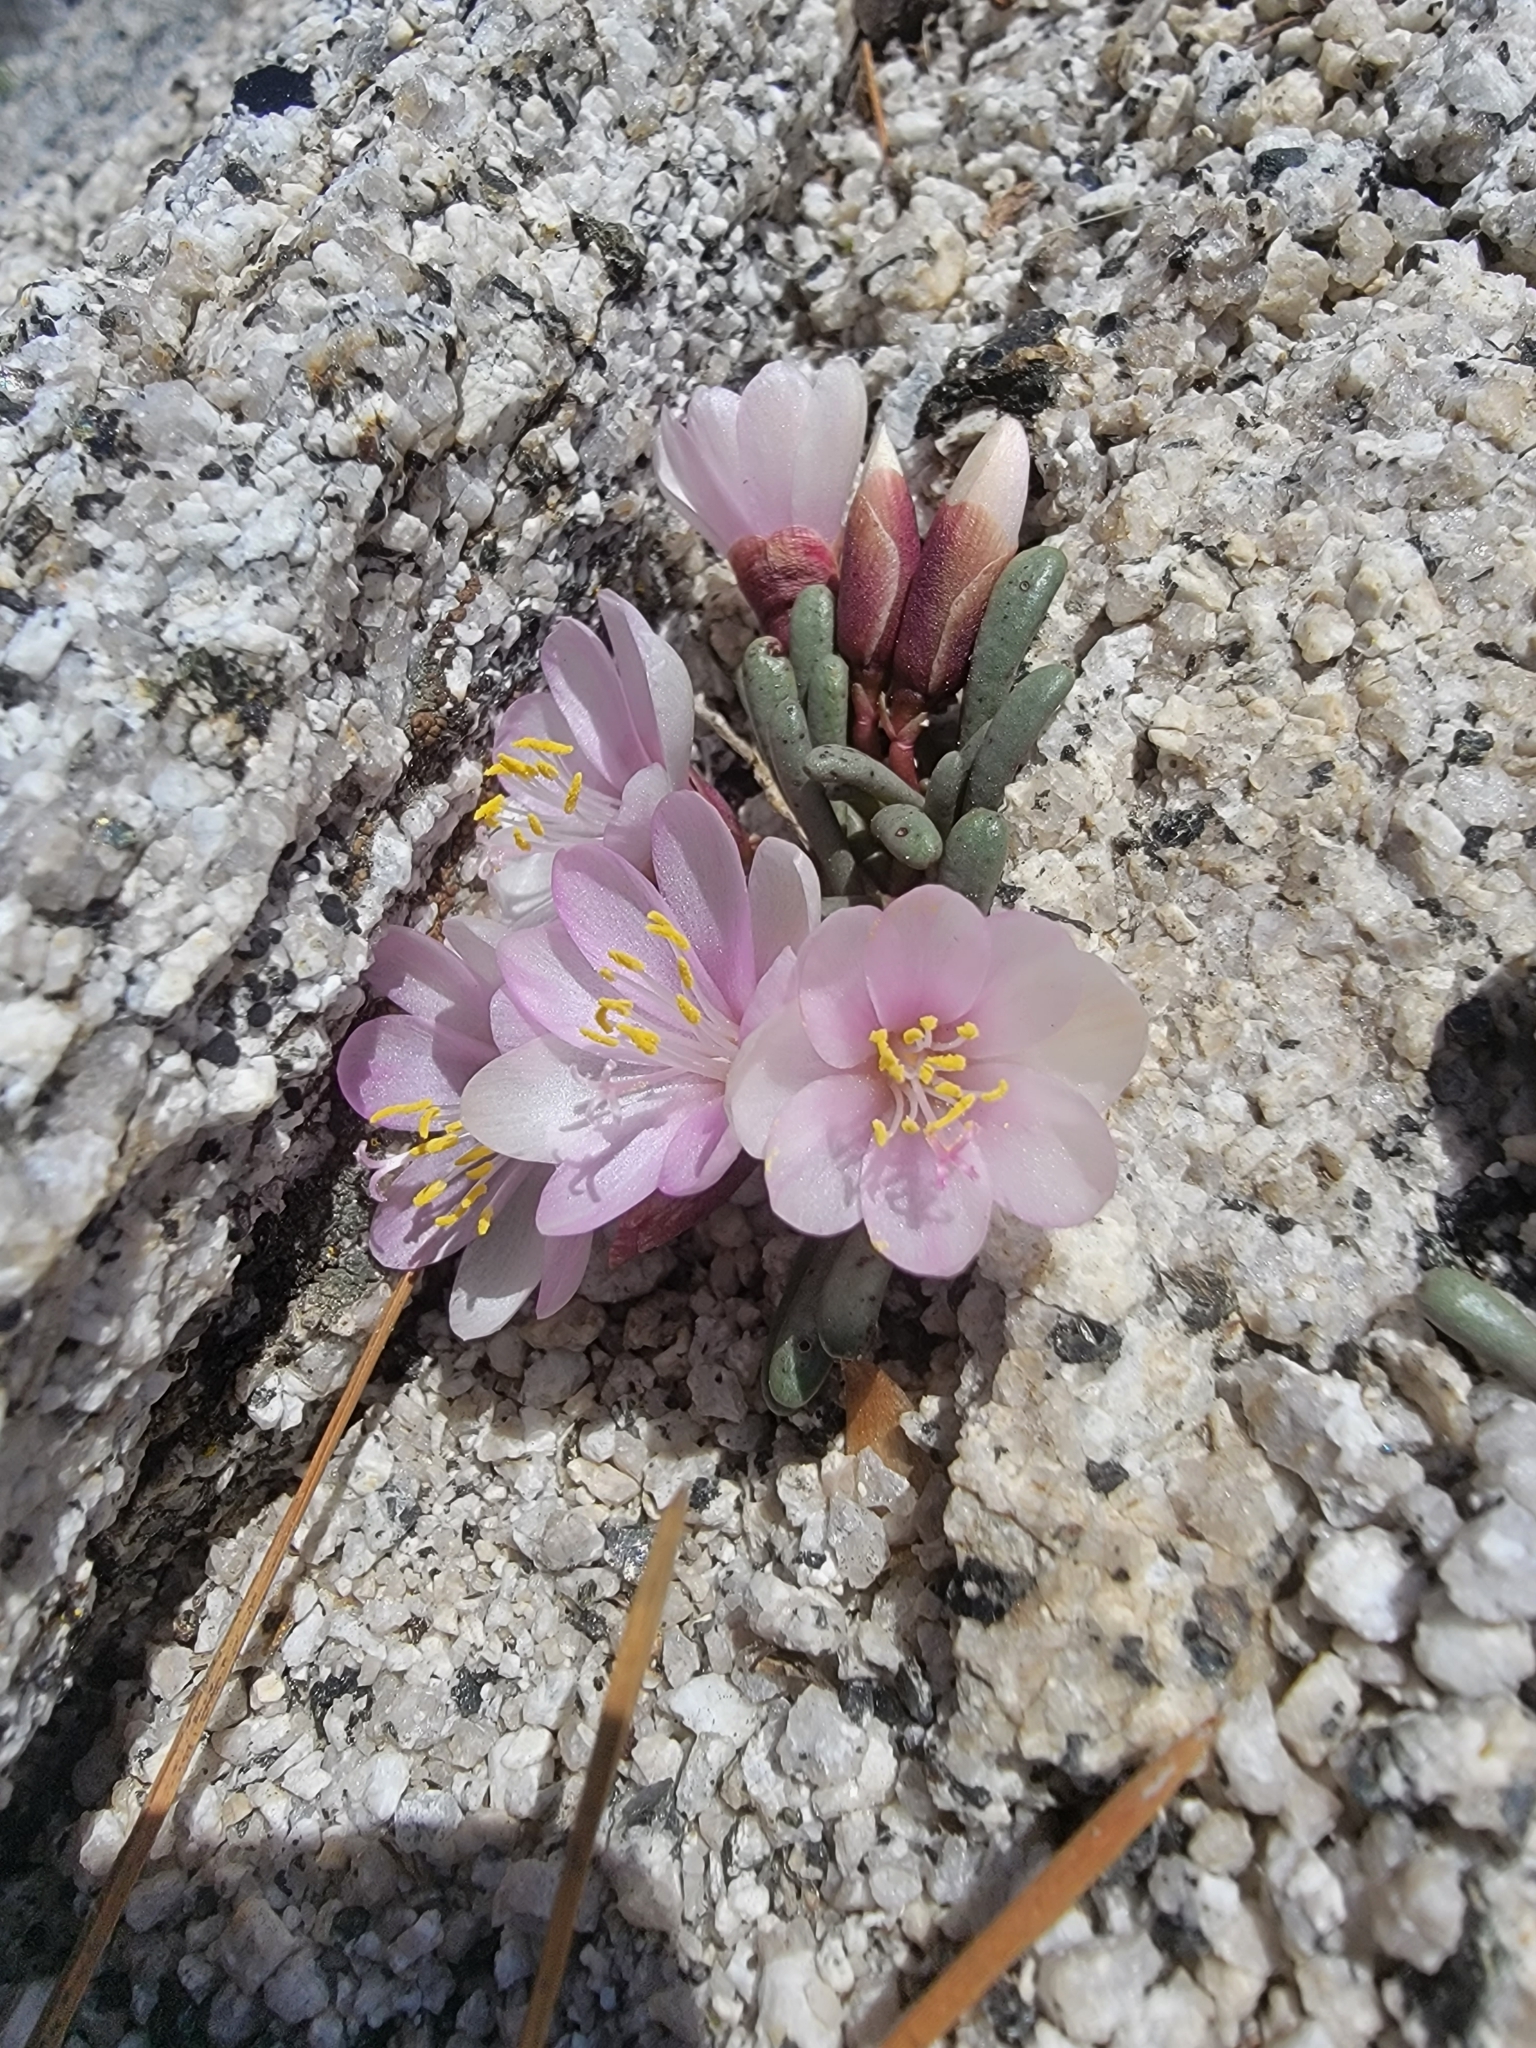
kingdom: Plantae
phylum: Tracheophyta
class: Magnoliopsida
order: Caryophyllales
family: Montiaceae
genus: Lewisia
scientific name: Lewisia disepala
